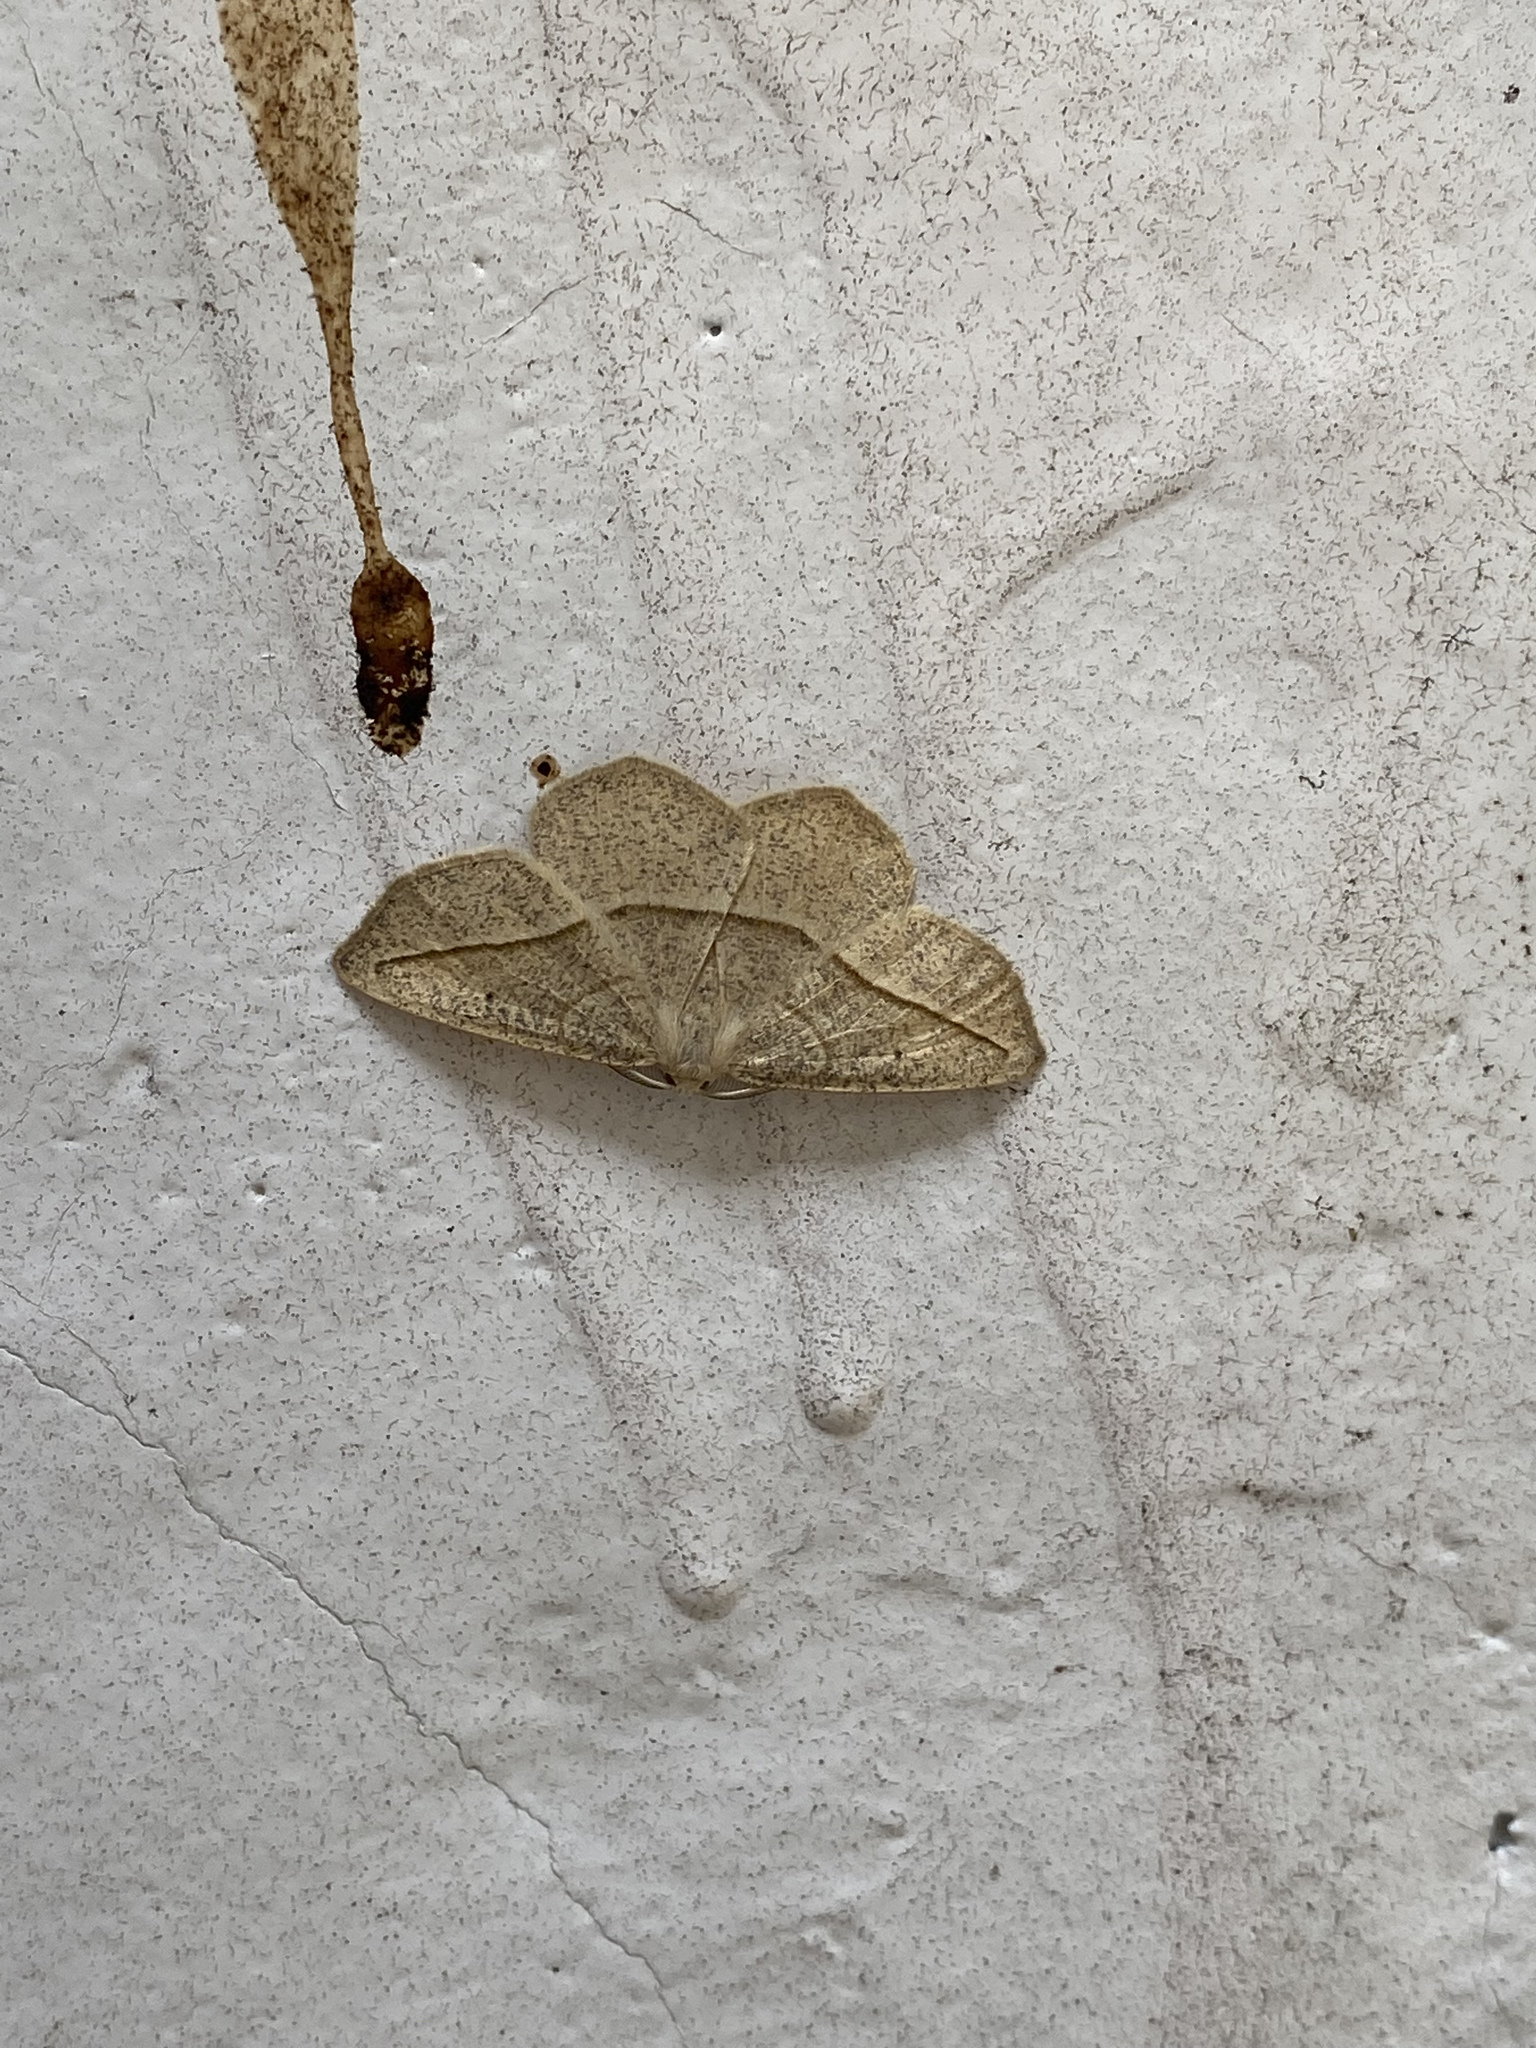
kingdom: Animalia
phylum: Arthropoda
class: Insecta
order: Lepidoptera
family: Geometridae
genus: Eusarca
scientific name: Eusarca confusaria
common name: Confused eusarca
